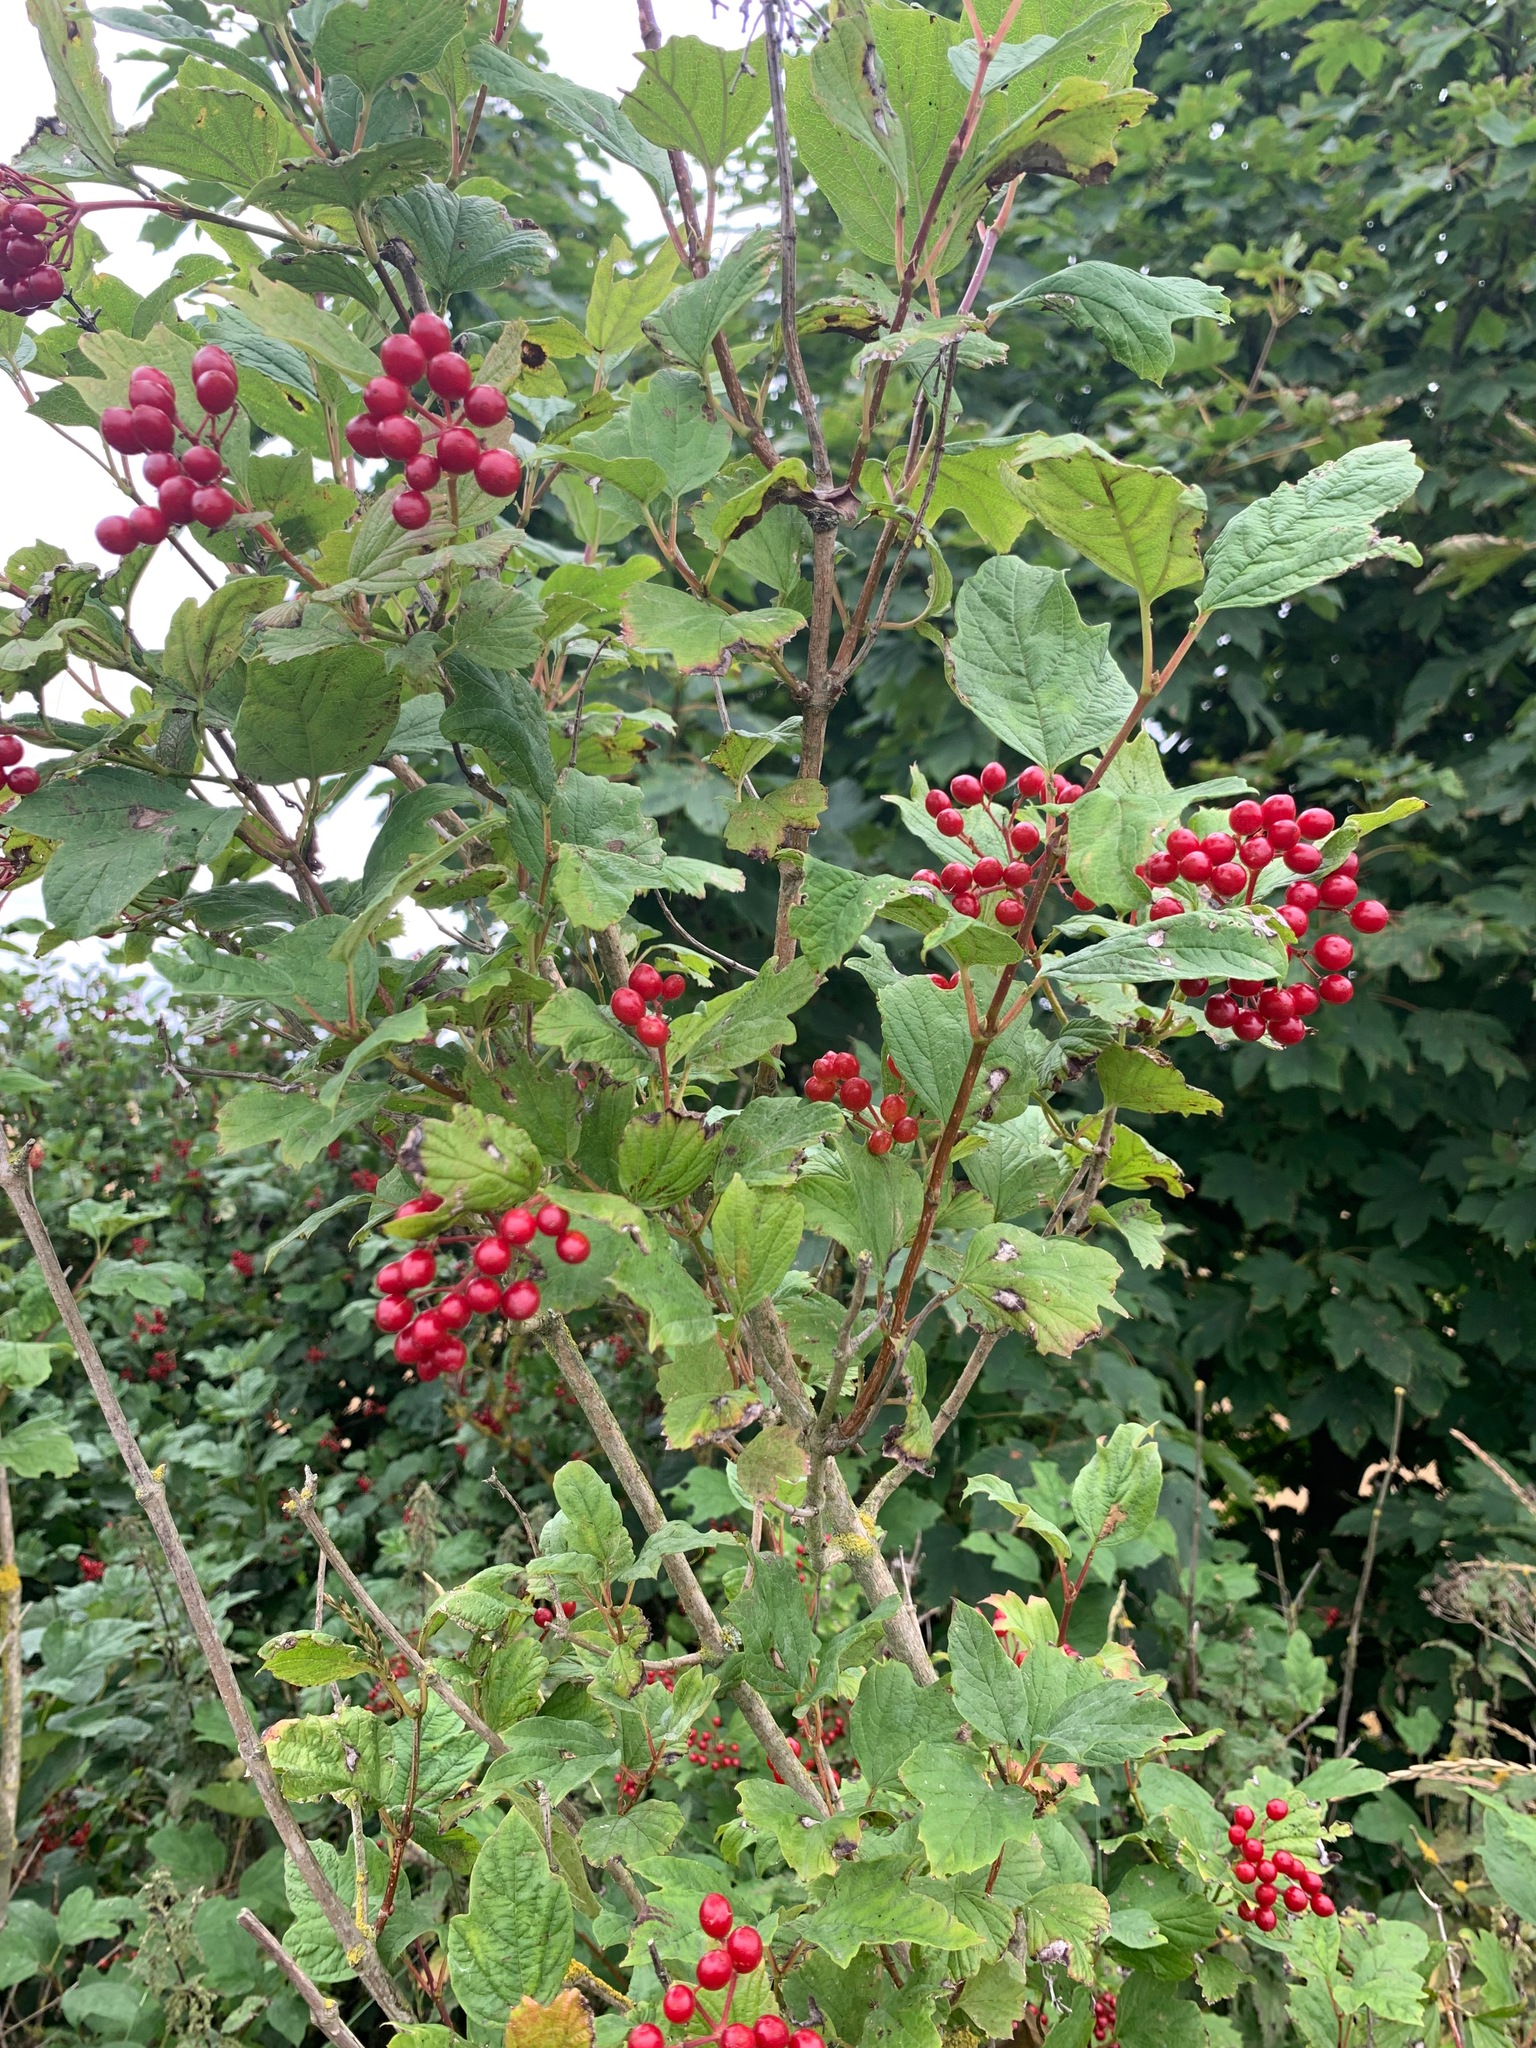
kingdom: Plantae
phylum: Tracheophyta
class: Magnoliopsida
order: Dipsacales
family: Viburnaceae
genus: Viburnum
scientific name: Viburnum opulus
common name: Guelder-rose
